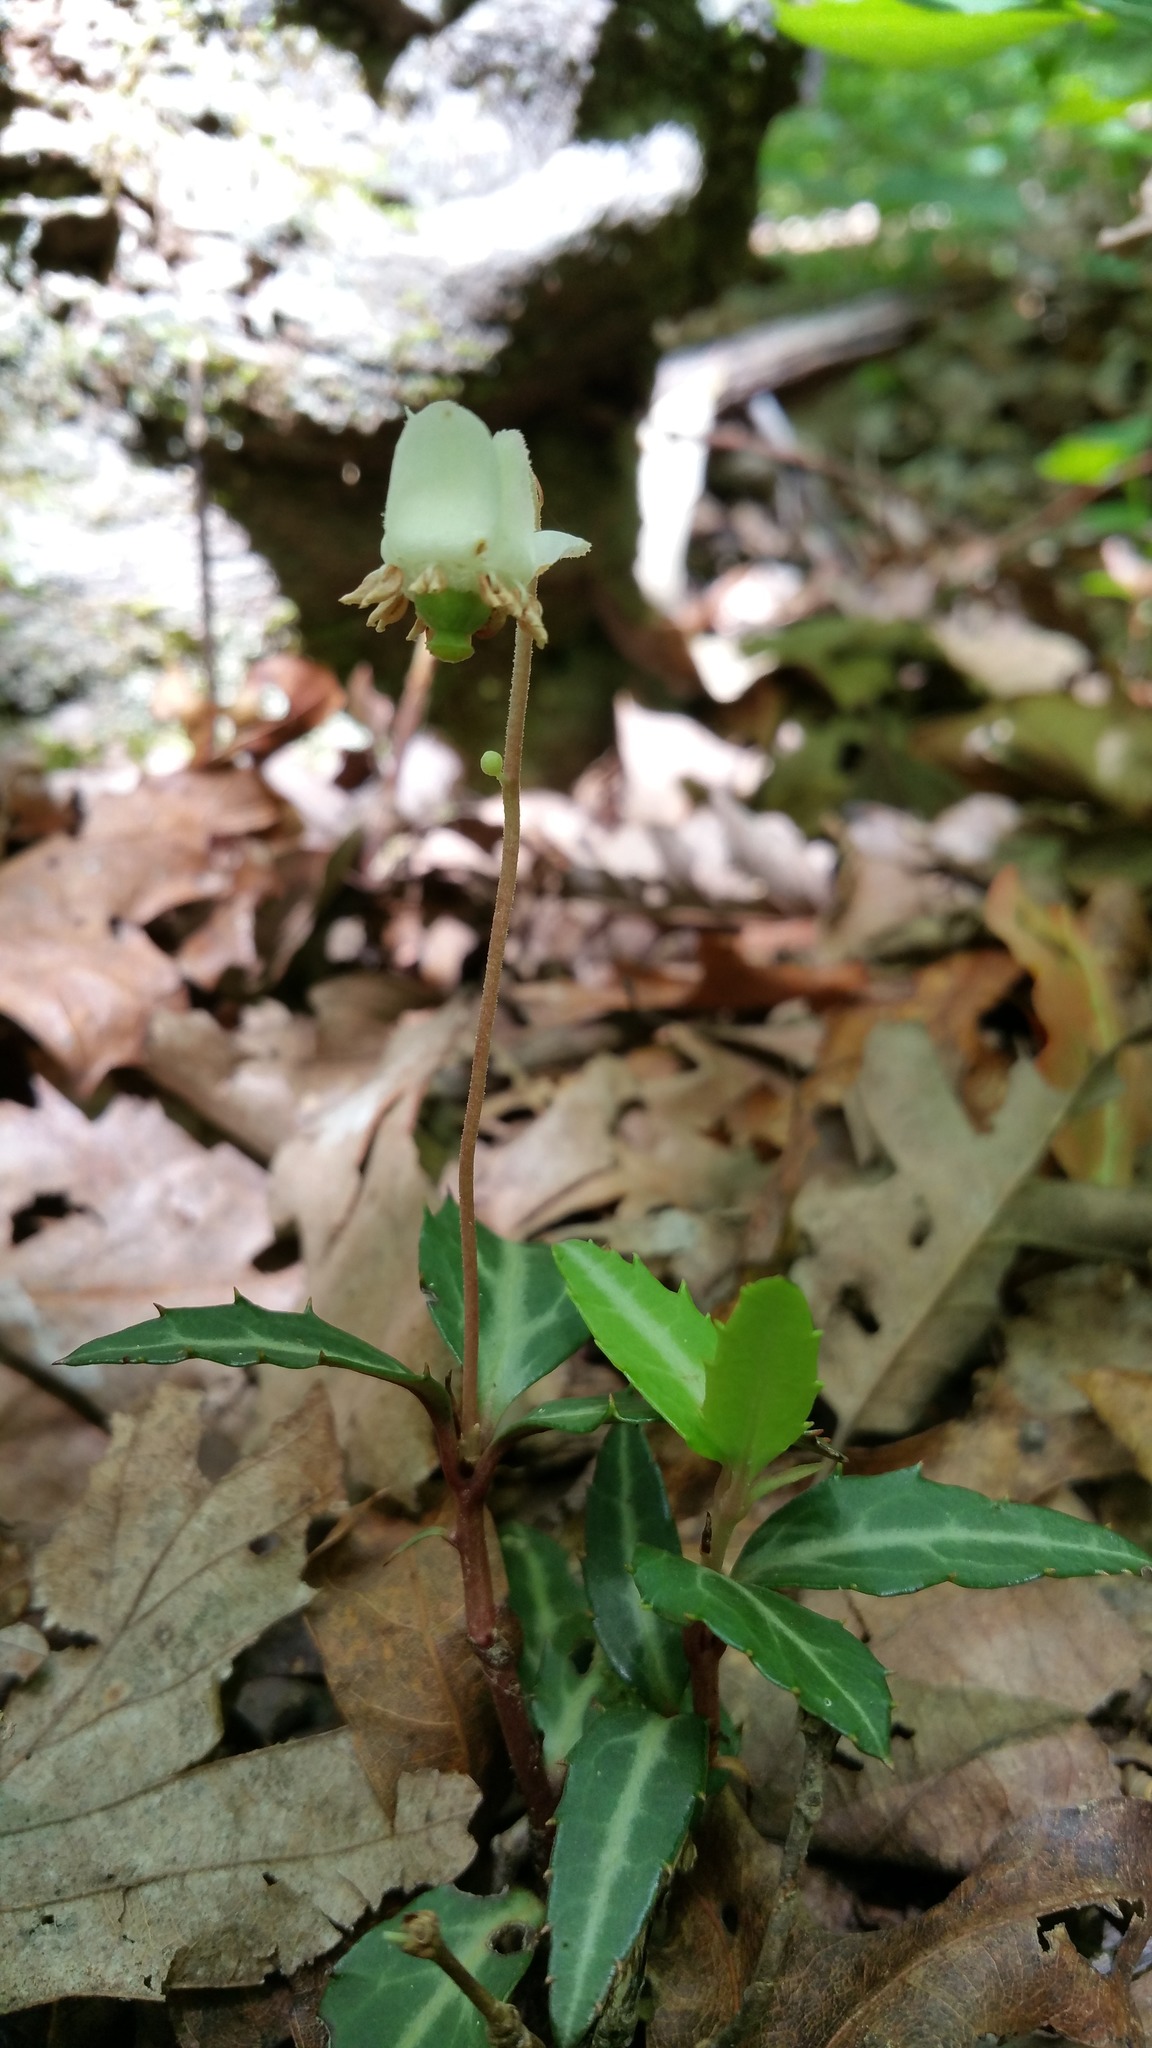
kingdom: Plantae
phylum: Tracheophyta
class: Magnoliopsida
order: Ericales
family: Ericaceae
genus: Chimaphila
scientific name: Chimaphila maculata
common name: Spotted pipsissewa
